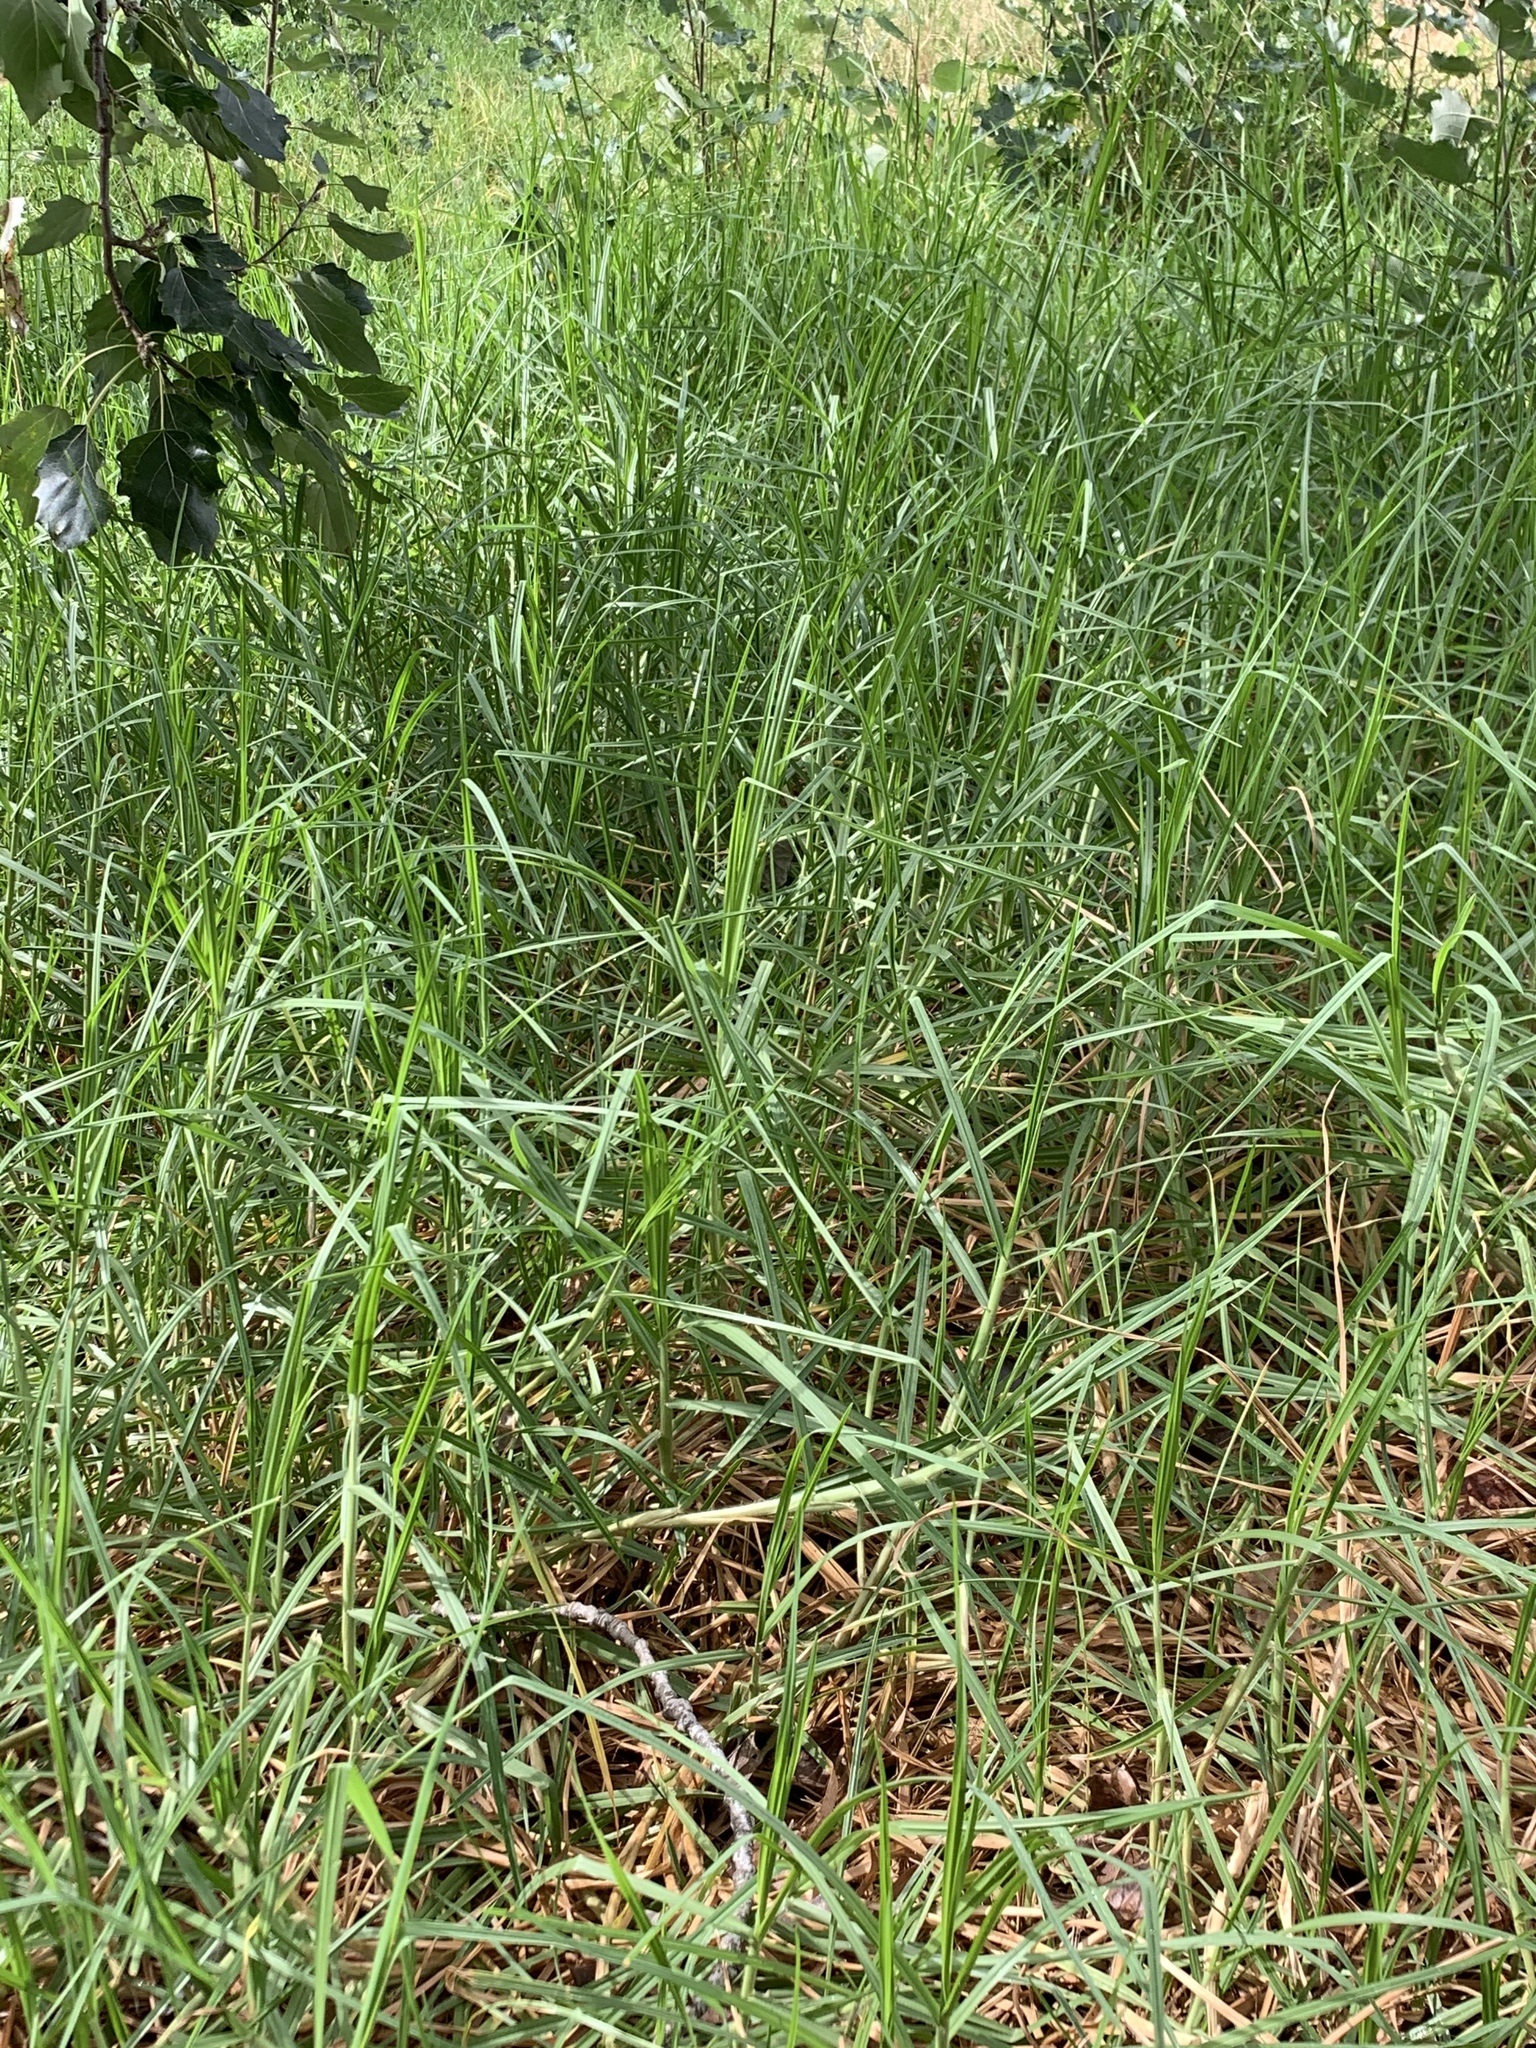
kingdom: Plantae
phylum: Tracheophyta
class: Liliopsida
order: Poales
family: Poaceae
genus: Cenchrus
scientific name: Cenchrus clandestinus
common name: Kikuyugrass
